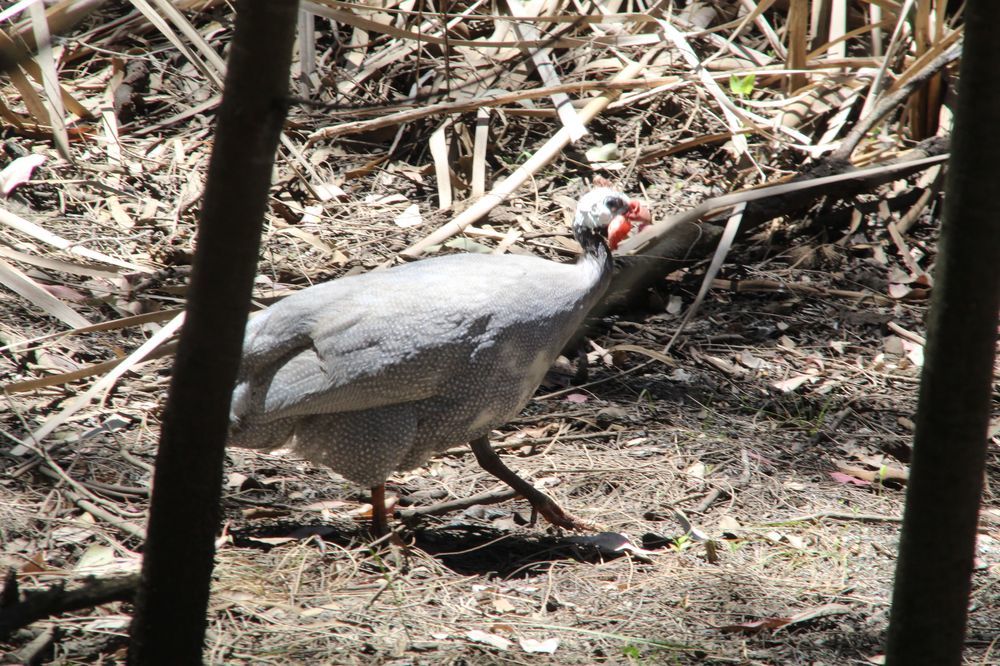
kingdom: Animalia
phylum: Chordata
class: Aves
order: Galliformes
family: Numididae
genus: Numida
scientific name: Numida meleagris
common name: Helmeted guineafowl
